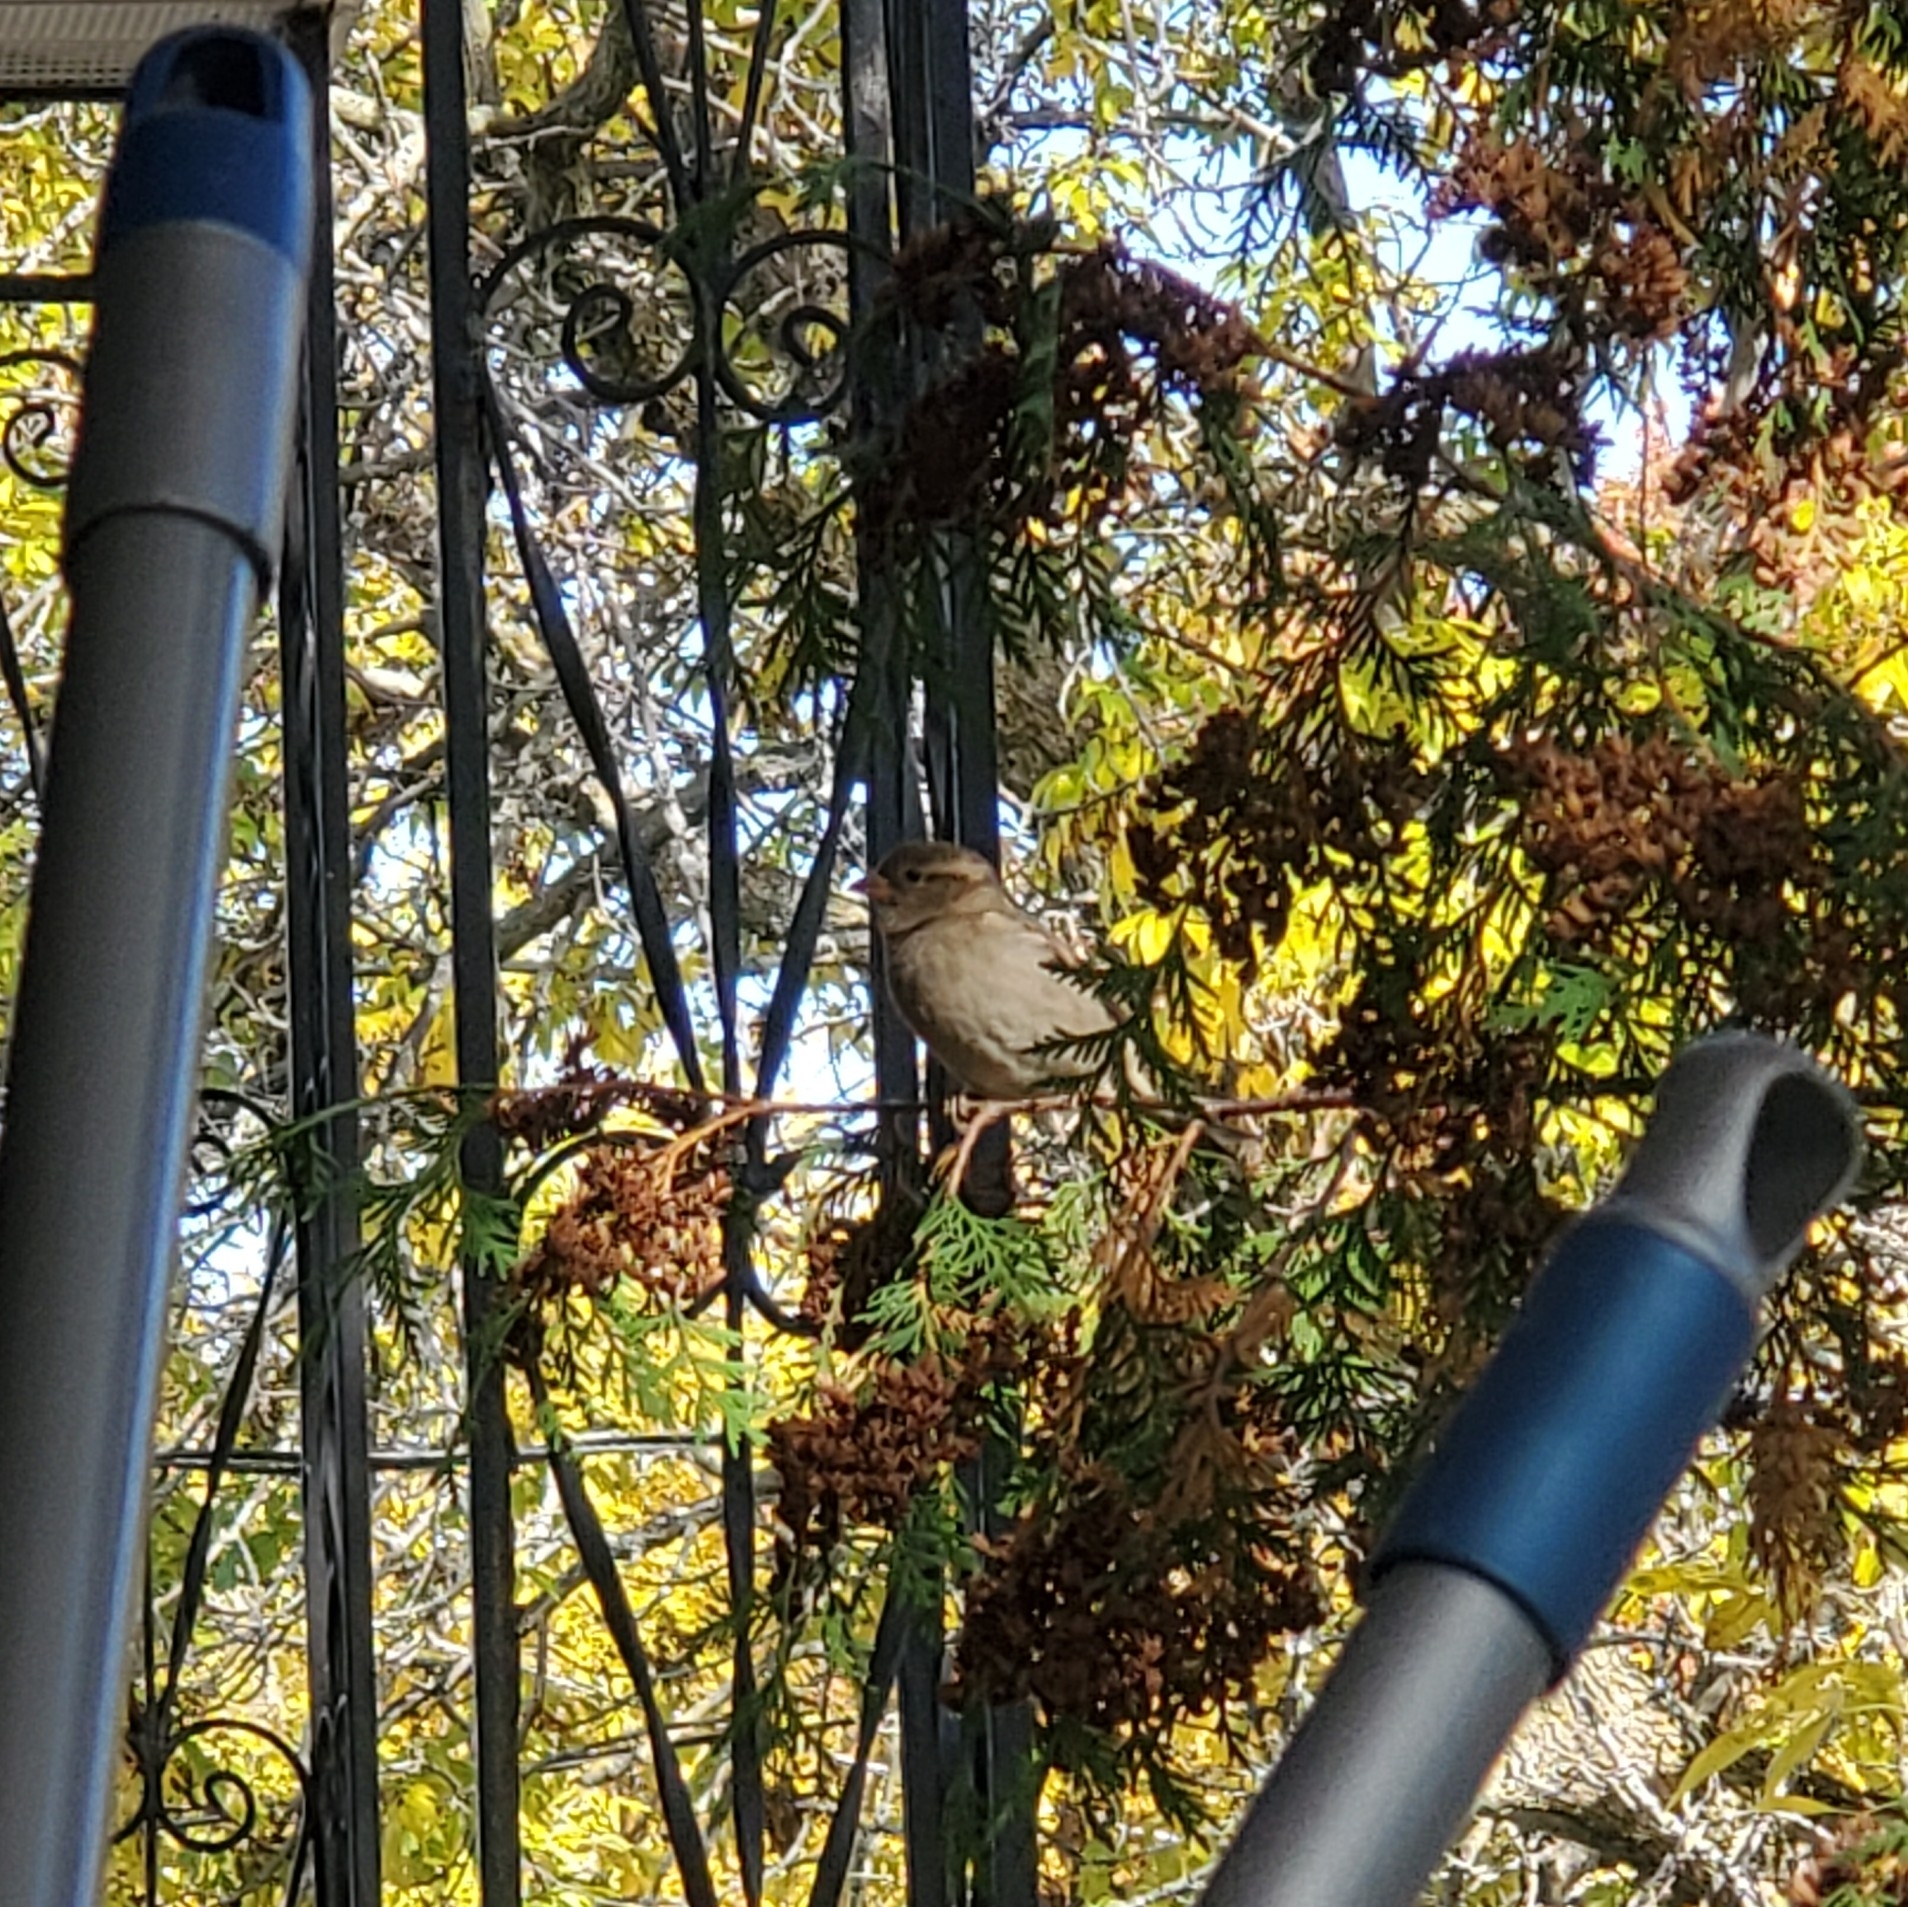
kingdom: Animalia
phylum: Chordata
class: Aves
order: Passeriformes
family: Passeridae
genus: Passer
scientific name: Passer domesticus
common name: House sparrow
